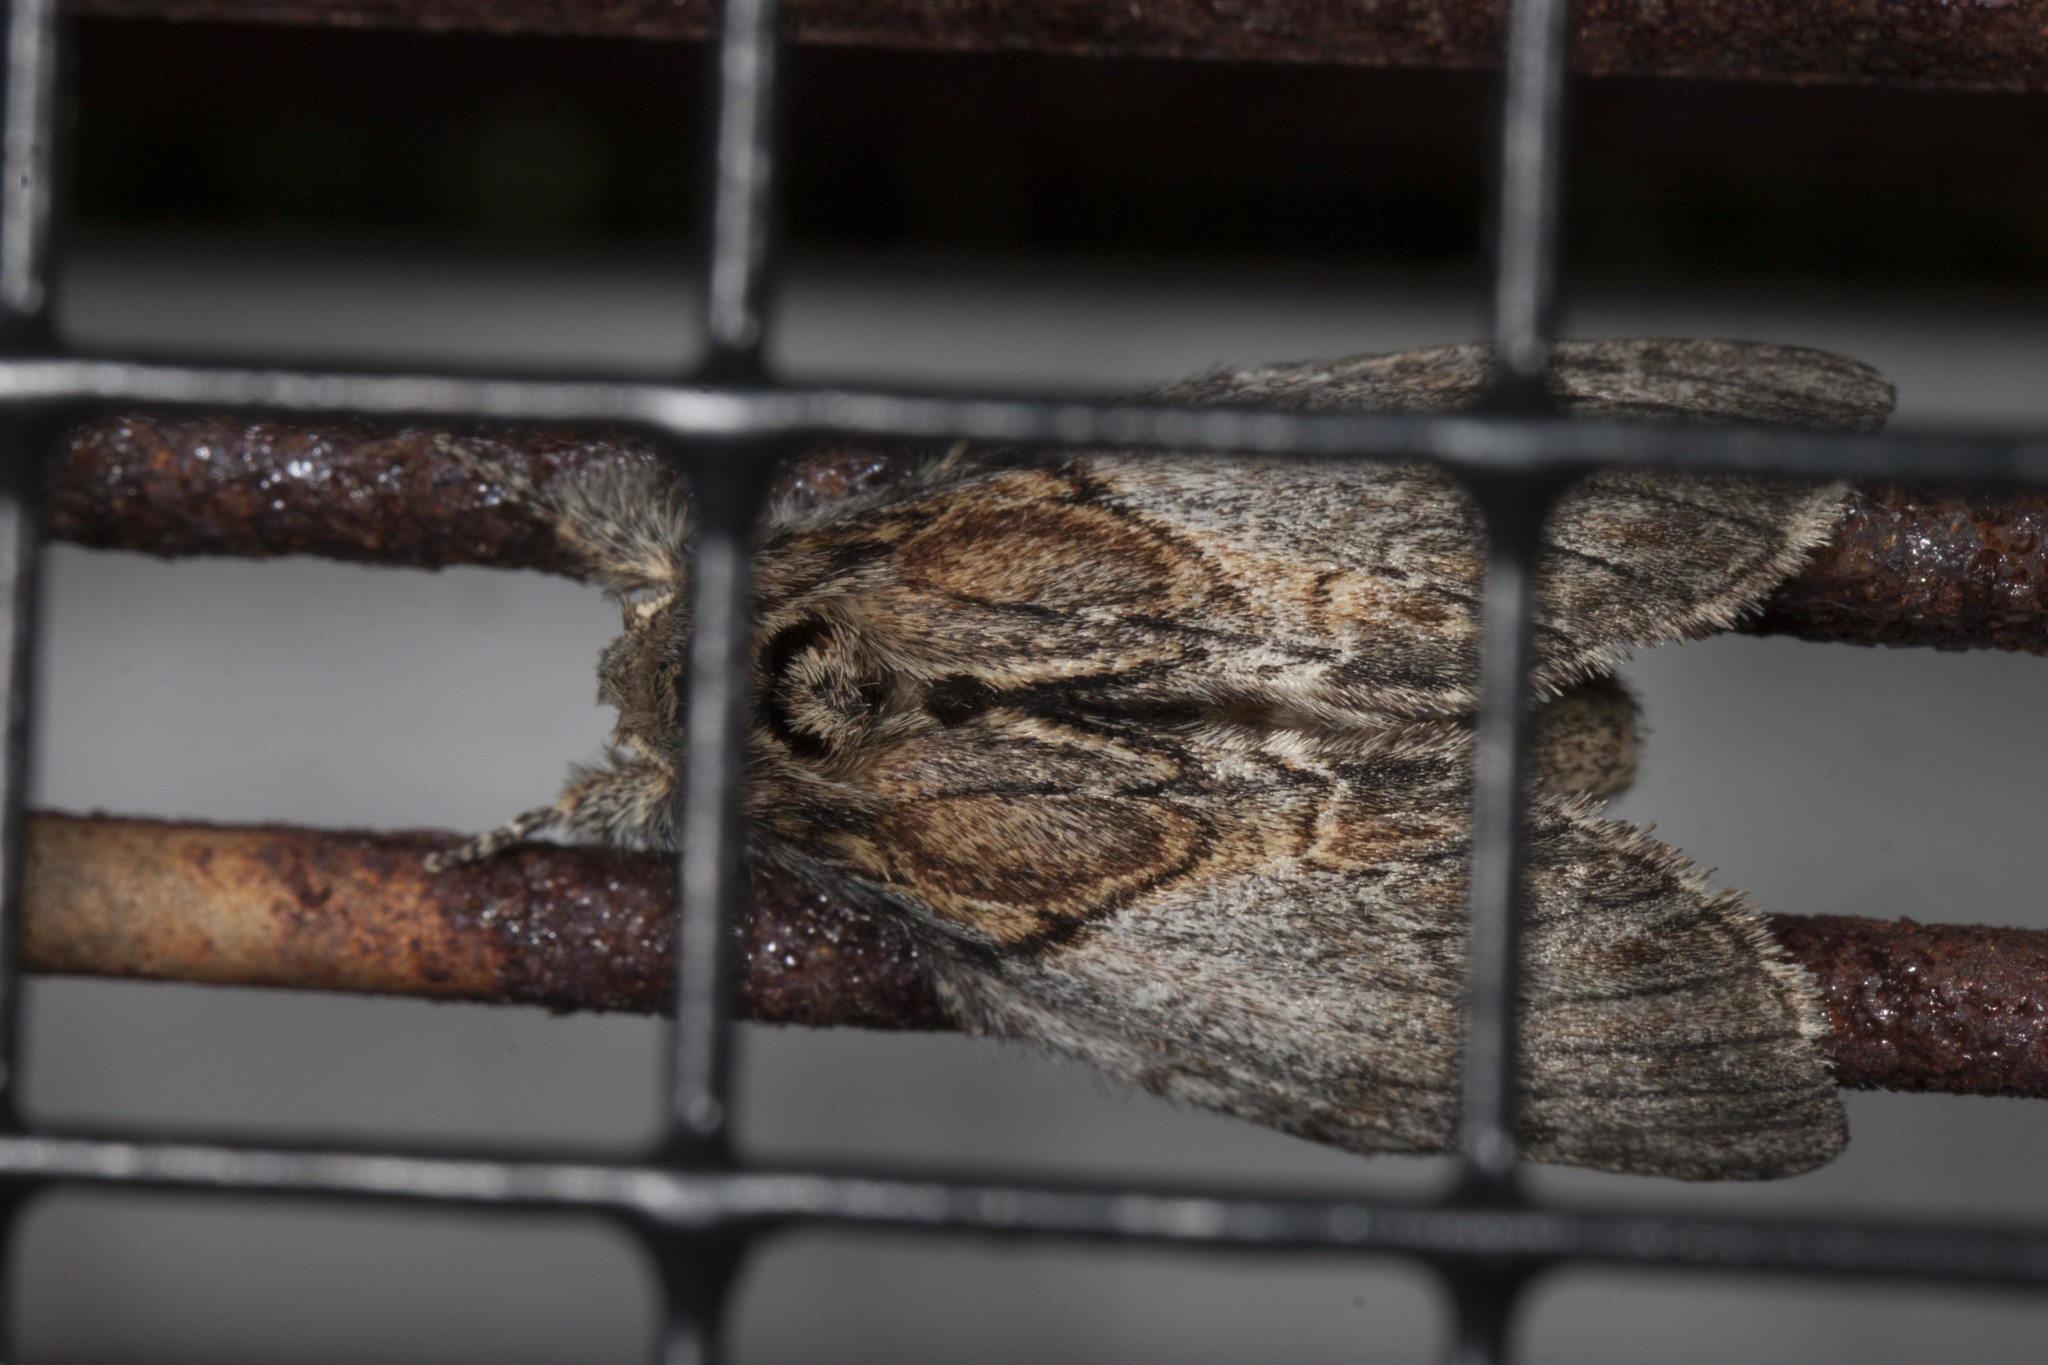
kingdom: Animalia
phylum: Arthropoda
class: Insecta
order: Lepidoptera
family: Notodontidae
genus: Peridea
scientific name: Peridea basitriens
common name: Oval-based prominent
